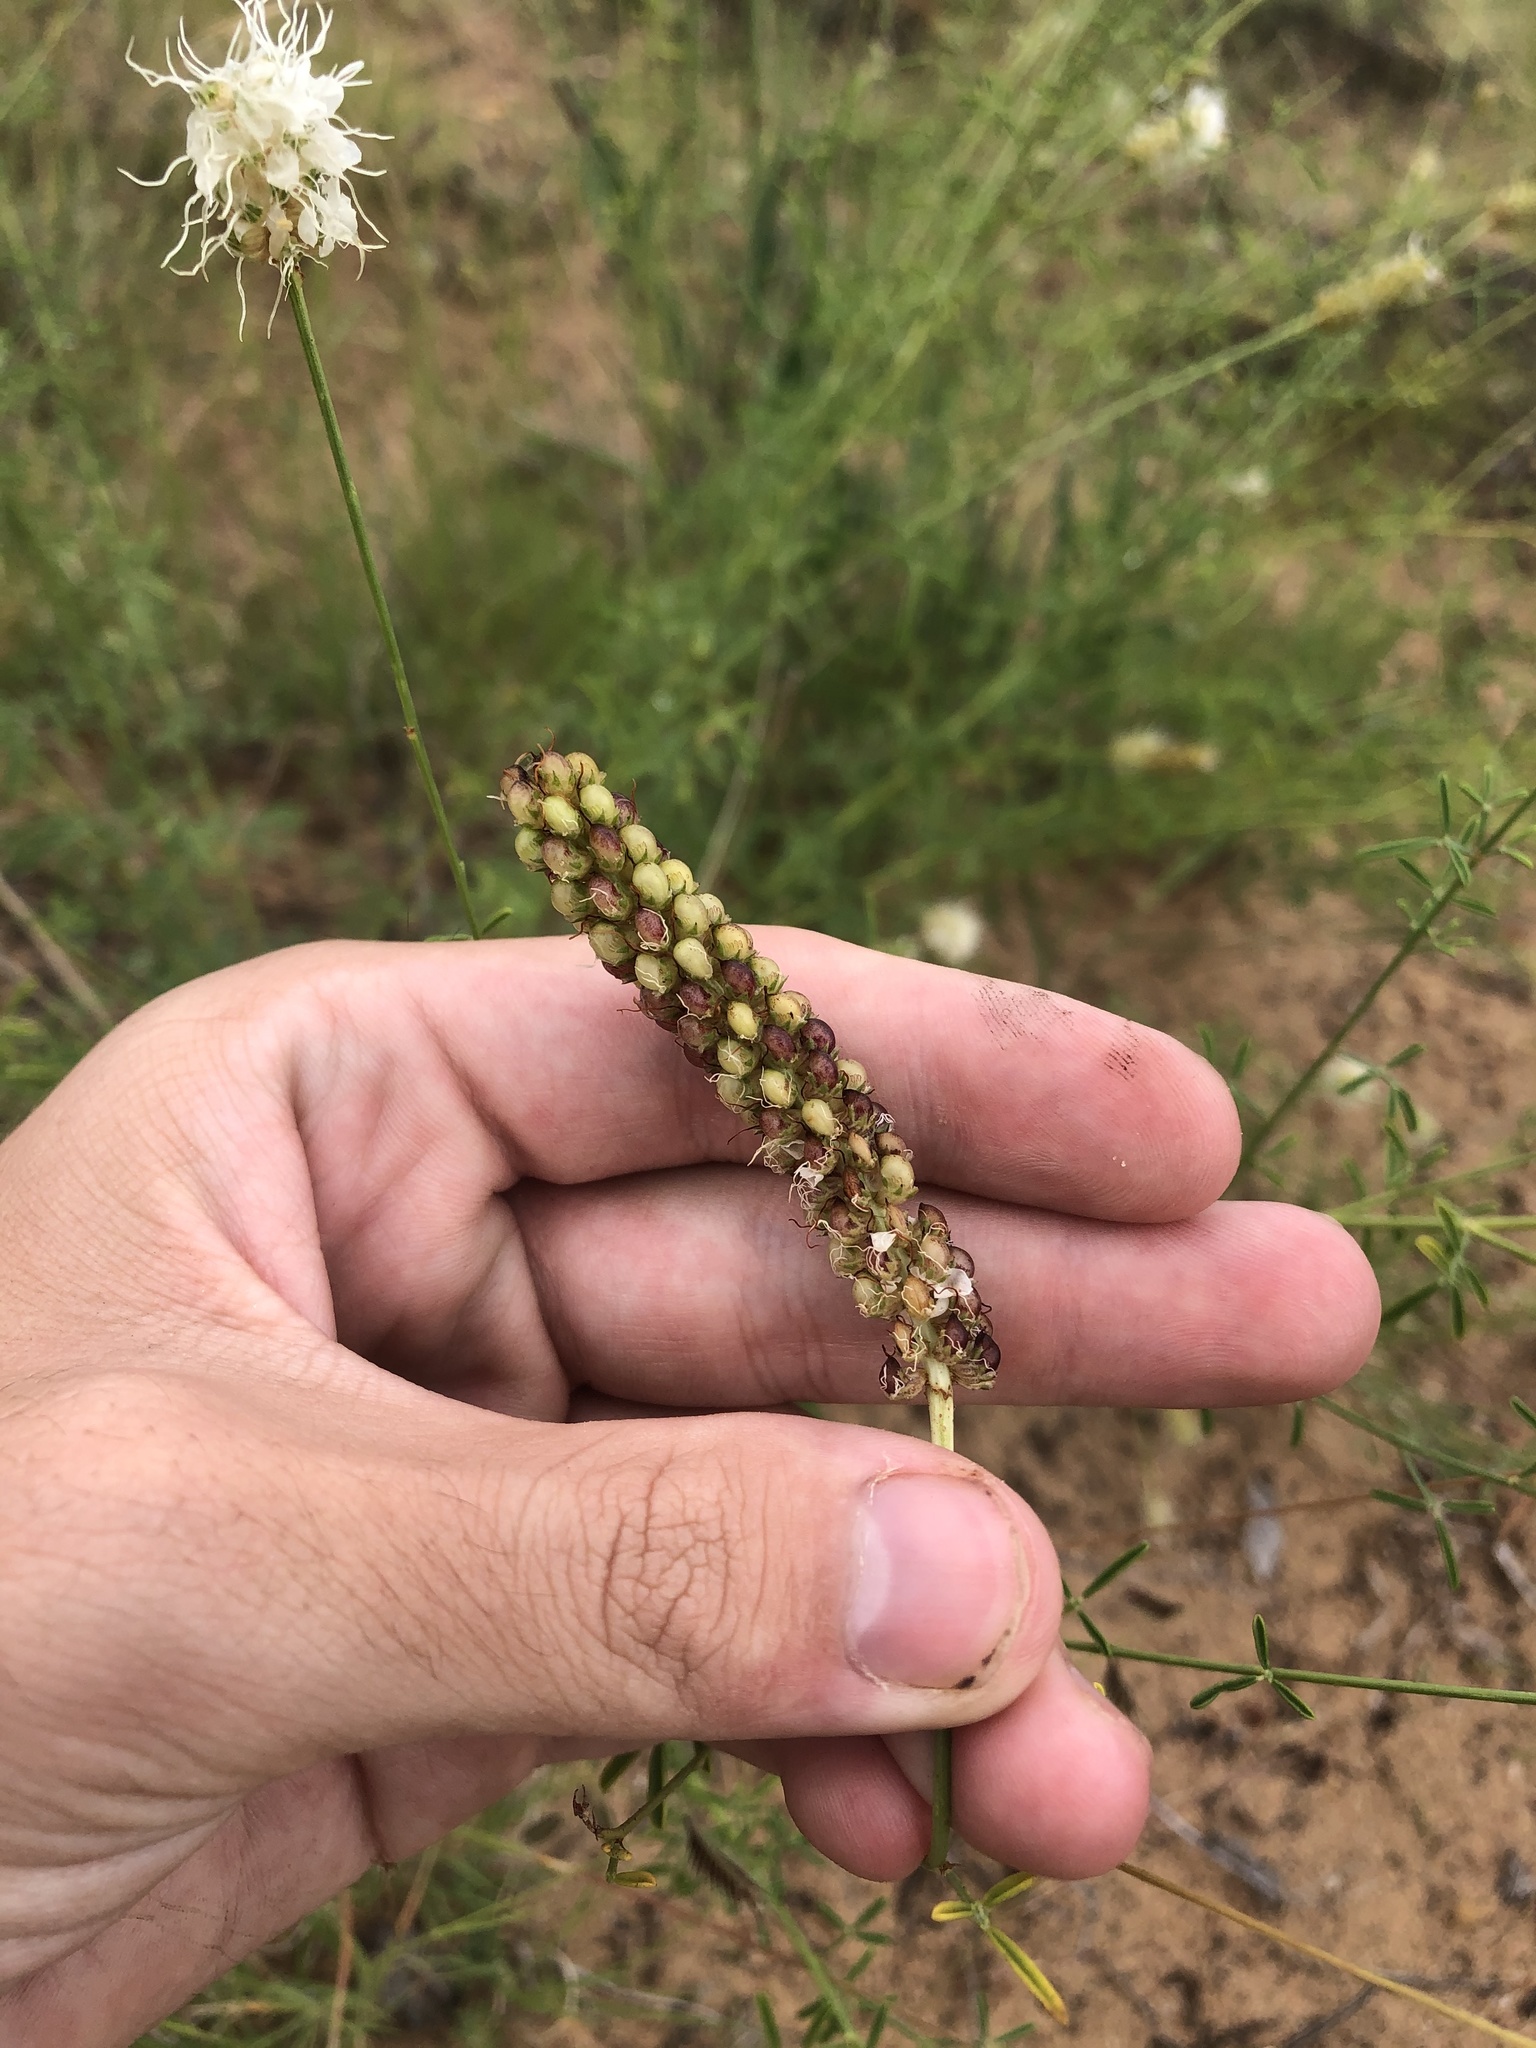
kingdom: Plantae
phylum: Tracheophyta
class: Magnoliopsida
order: Fabales
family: Fabaceae
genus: Dalea
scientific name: Dalea multiflora
